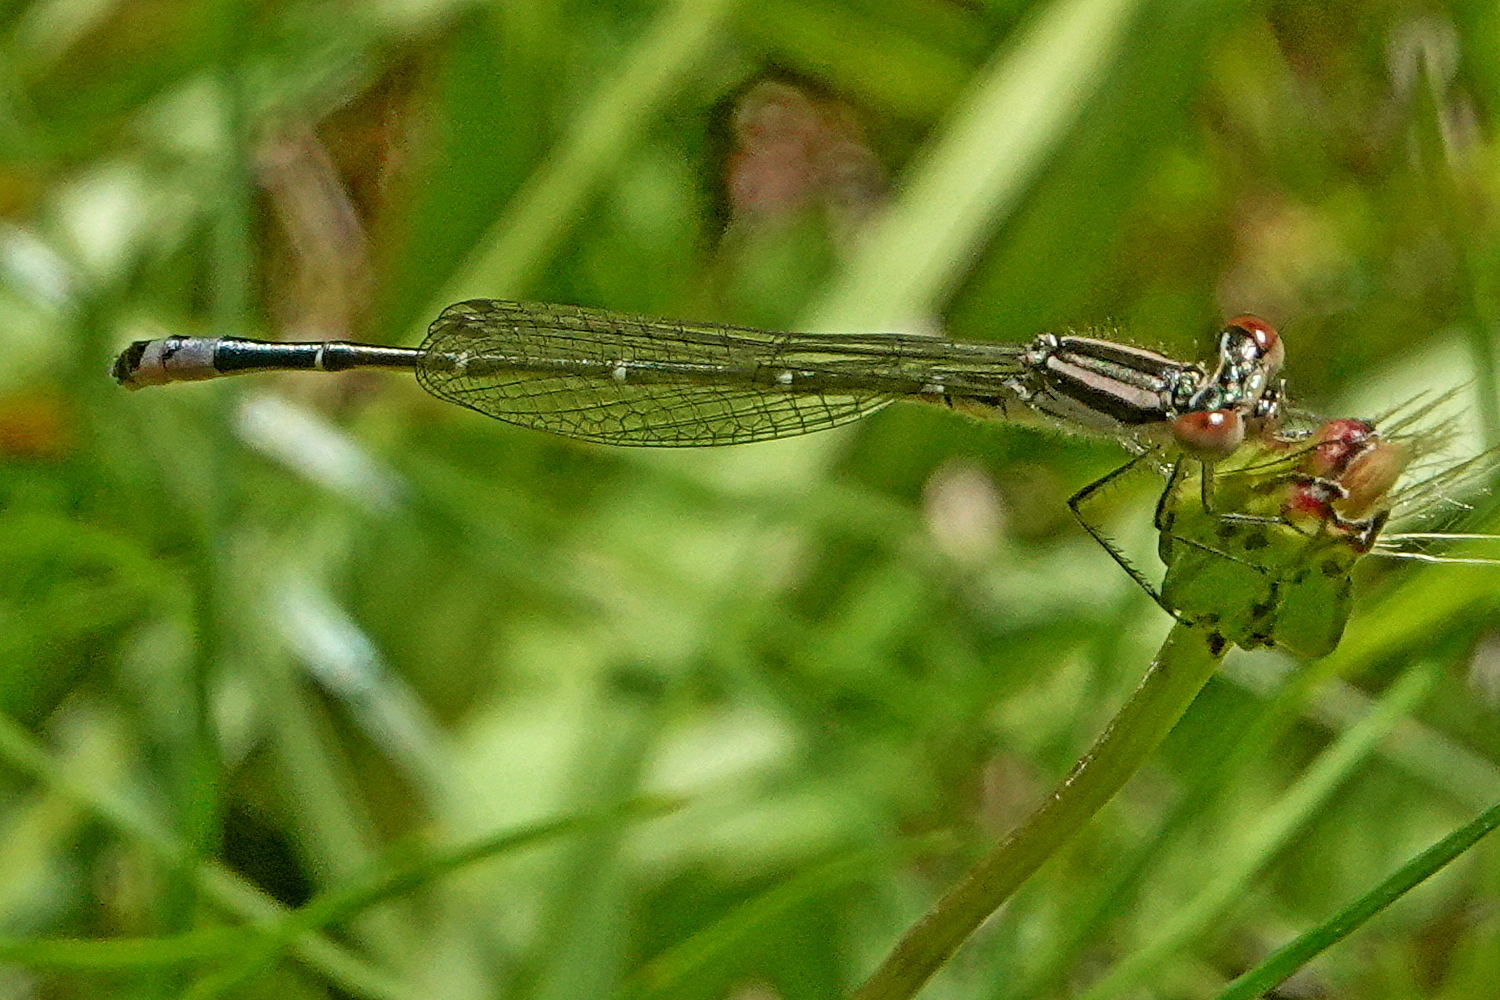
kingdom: Animalia
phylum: Arthropoda
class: Insecta
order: Odonata
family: Coenagrionidae
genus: Austroagrion
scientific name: Austroagrion watsoni
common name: Eastern billabongfly
